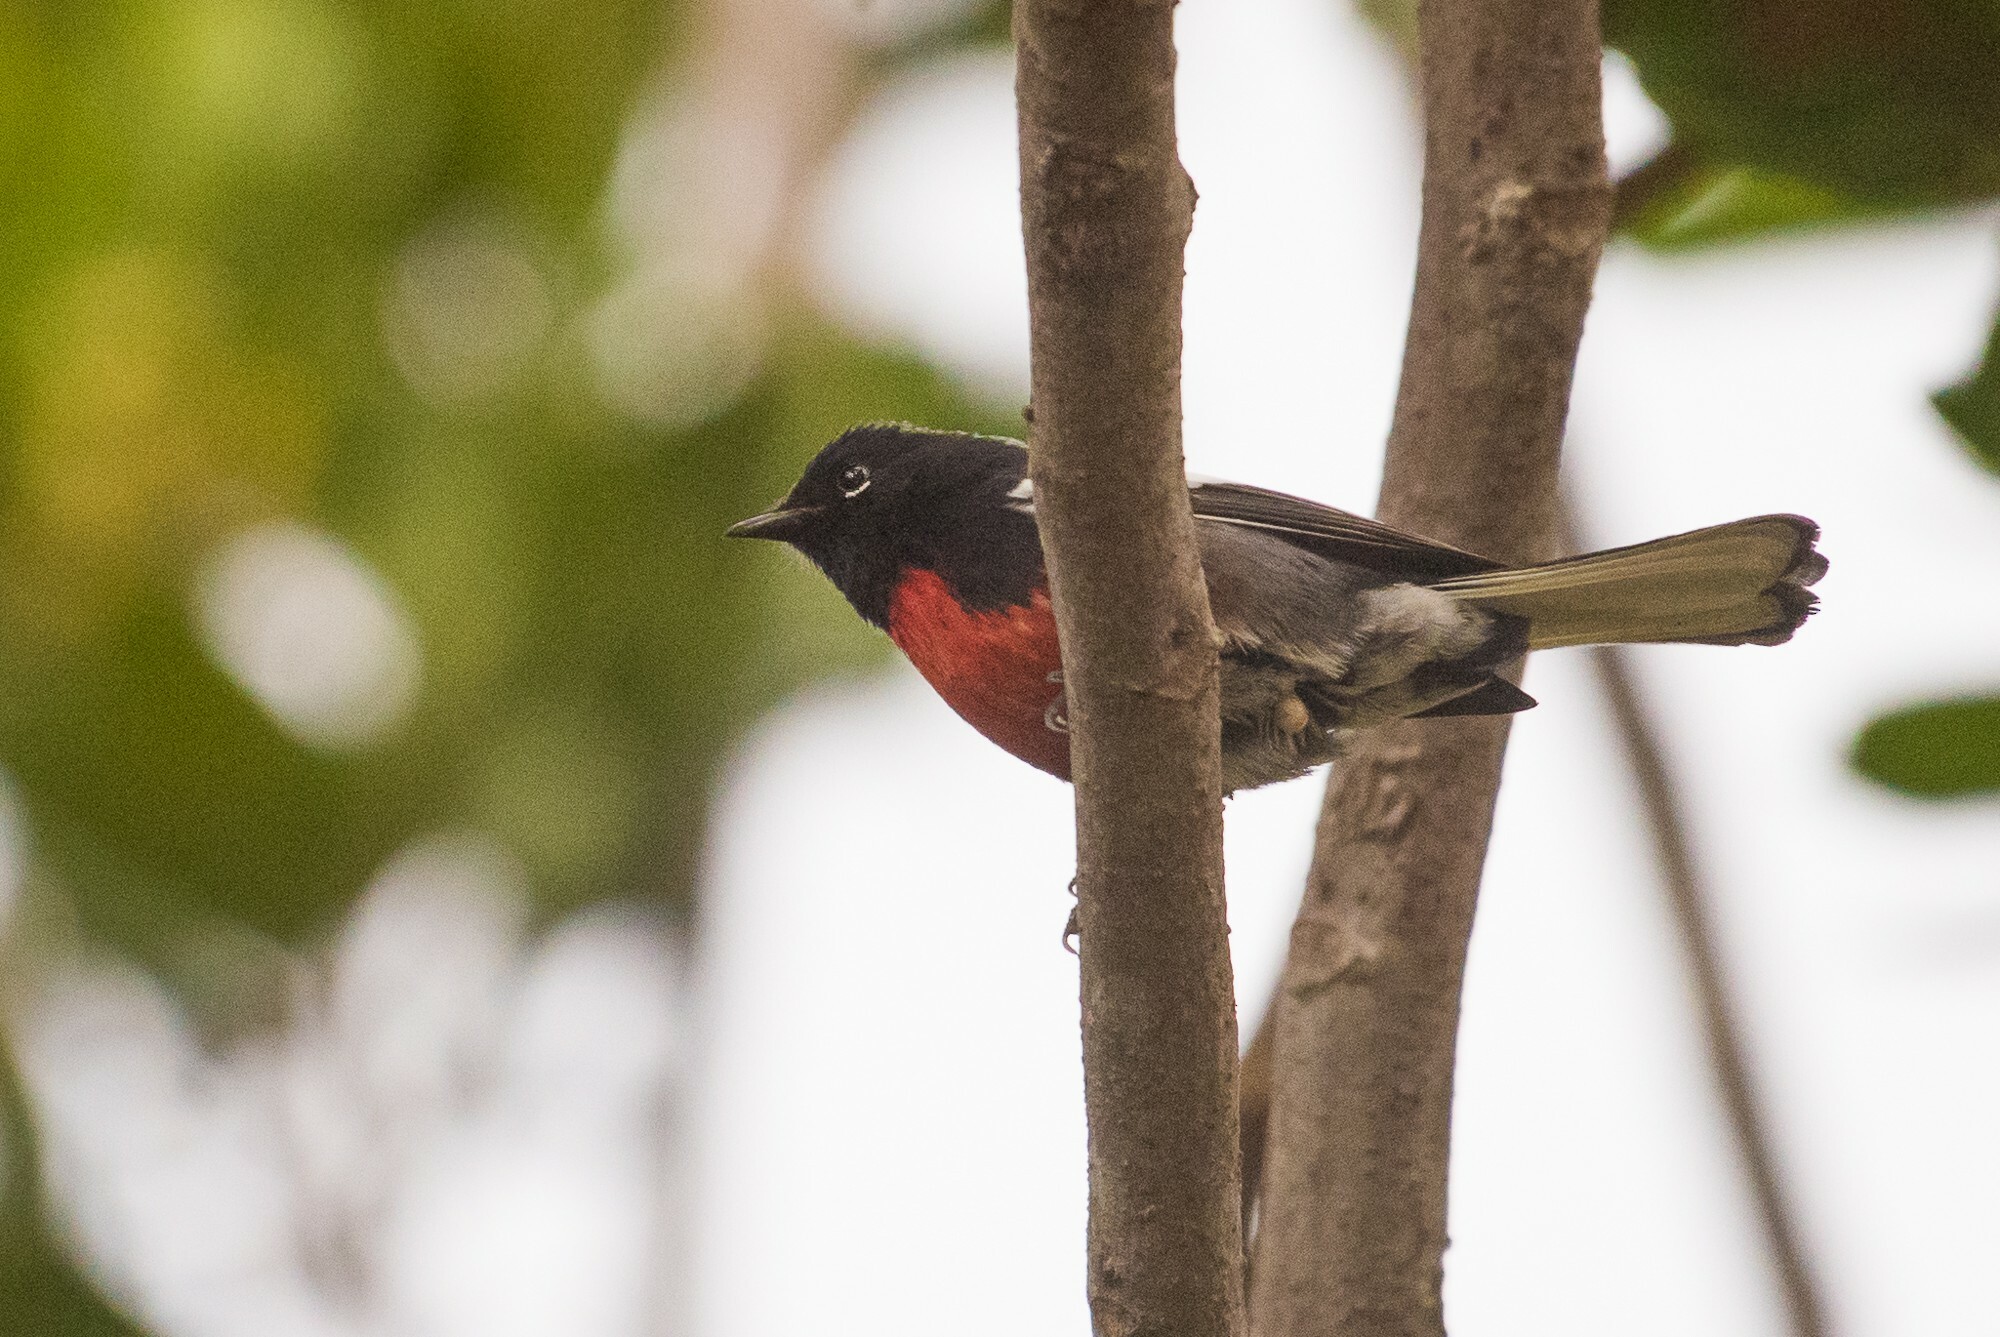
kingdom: Animalia
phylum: Chordata
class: Aves
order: Passeriformes
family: Parulidae
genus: Myioborus
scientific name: Myioborus pictus
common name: Painted whitestart
